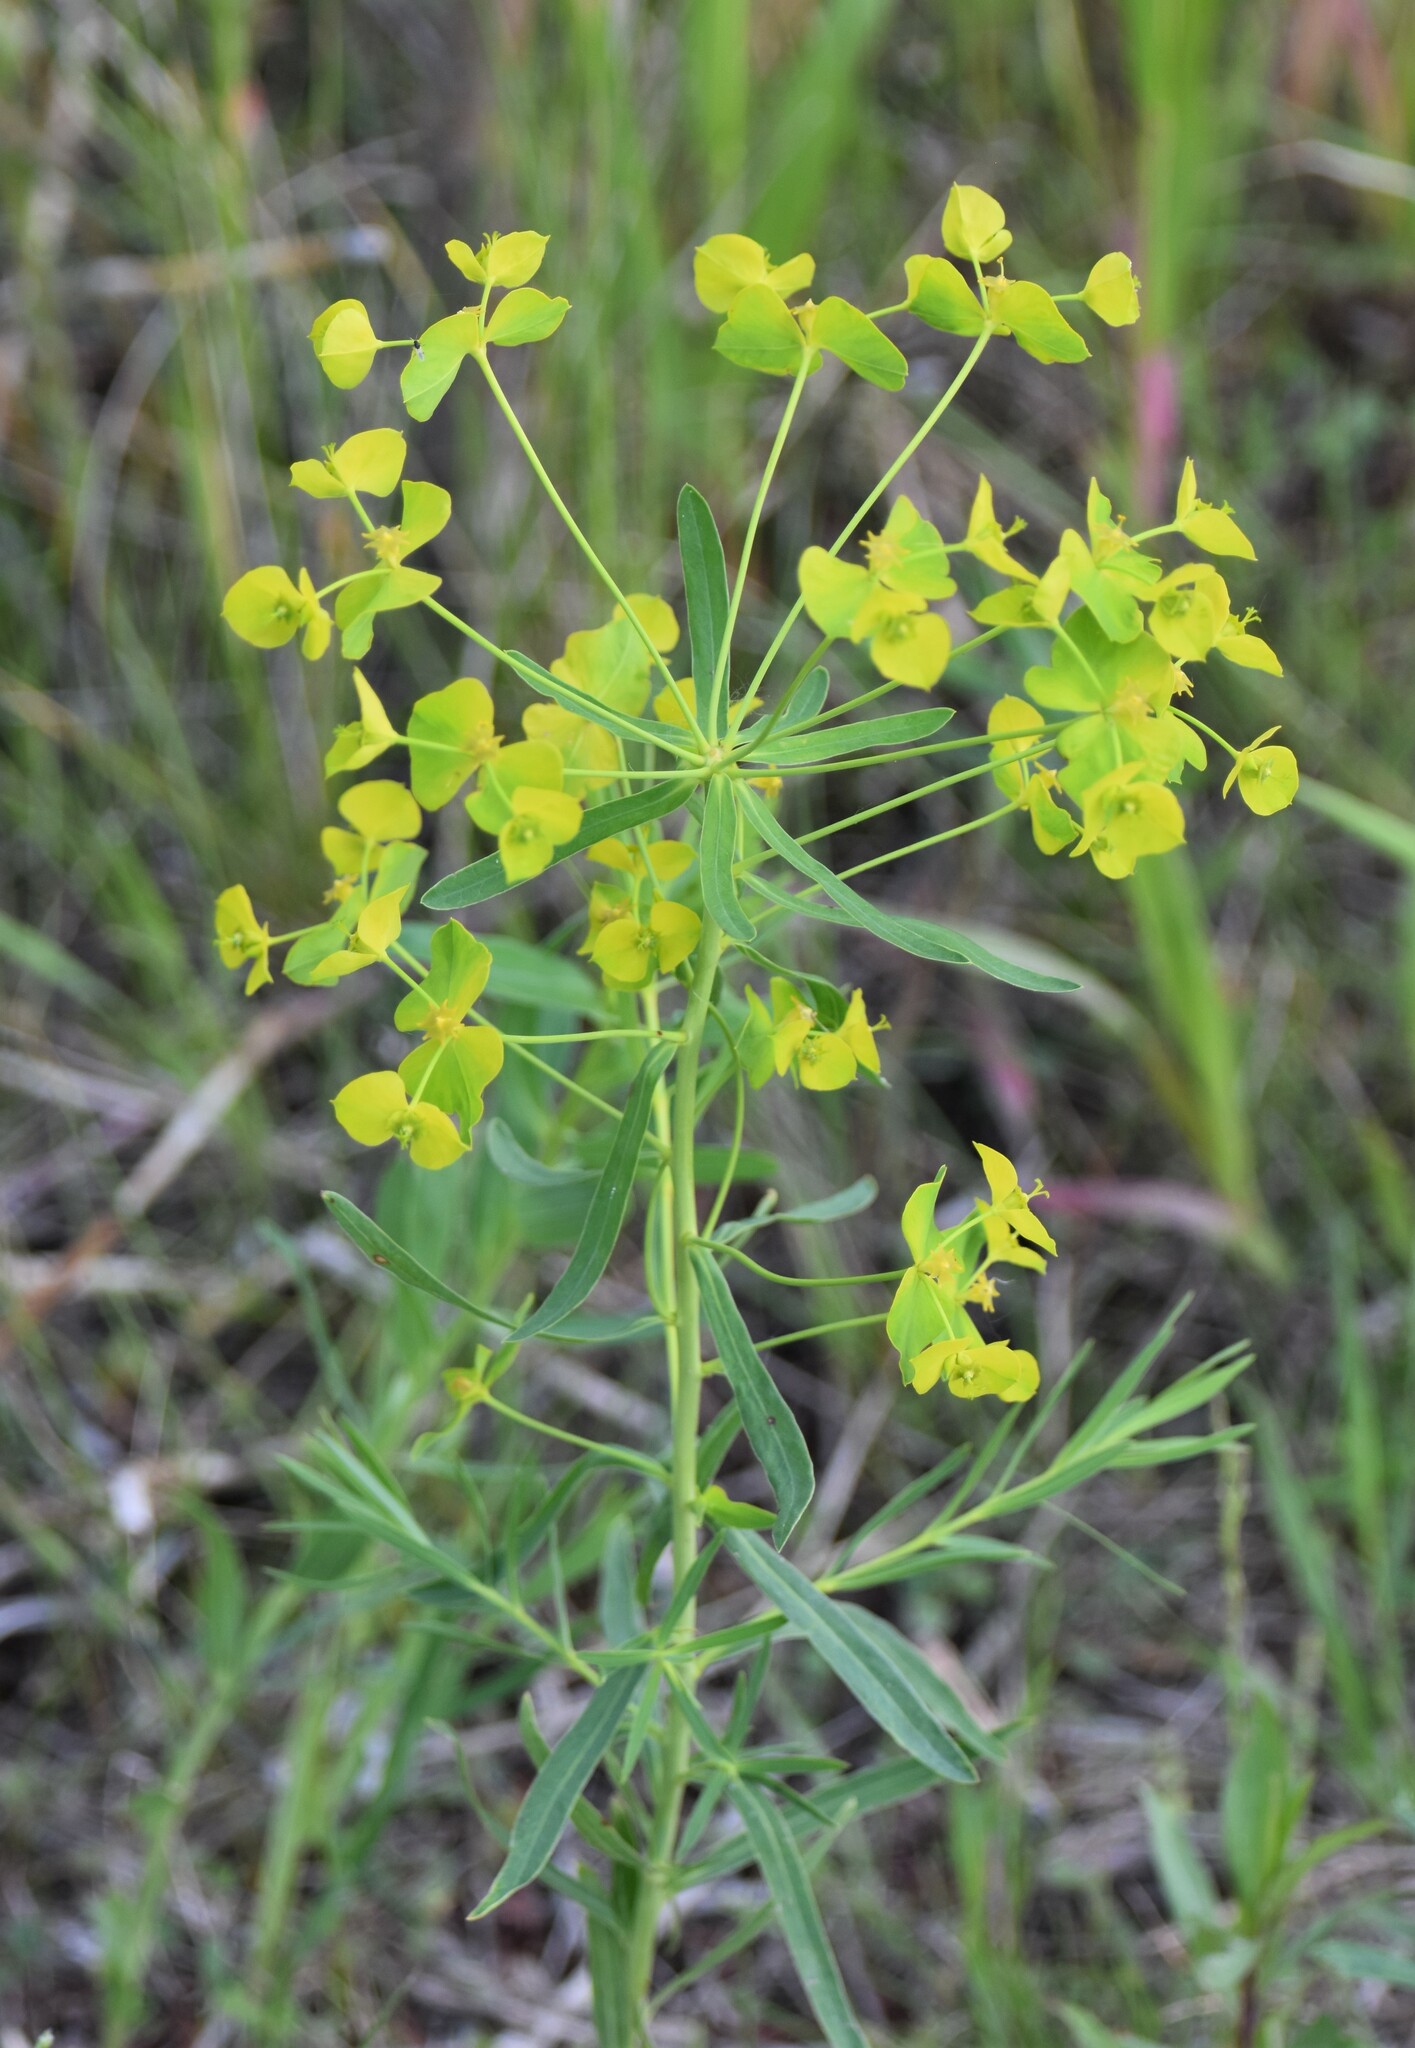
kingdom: Plantae
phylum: Tracheophyta
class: Magnoliopsida
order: Malpighiales
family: Euphorbiaceae
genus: Euphorbia
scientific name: Euphorbia virgata
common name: Leafy spurge
